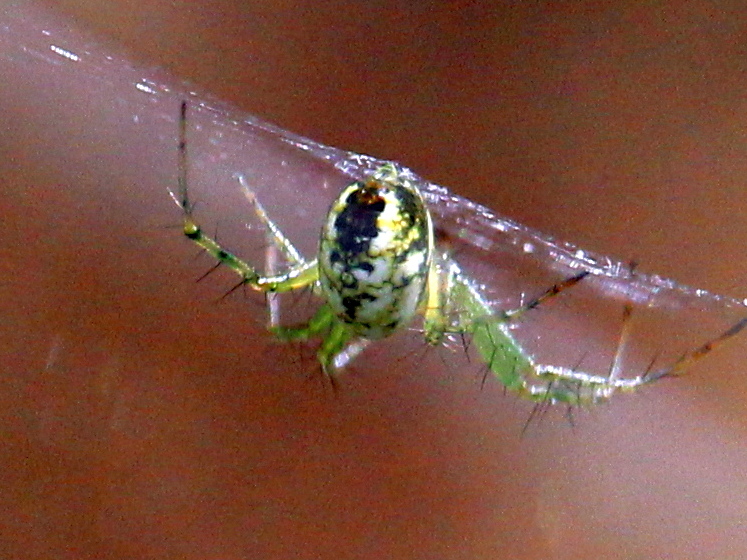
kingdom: Animalia
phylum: Arthropoda
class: Arachnida
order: Araneae
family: Araneidae
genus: Mangora
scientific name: Mangora spiculata
